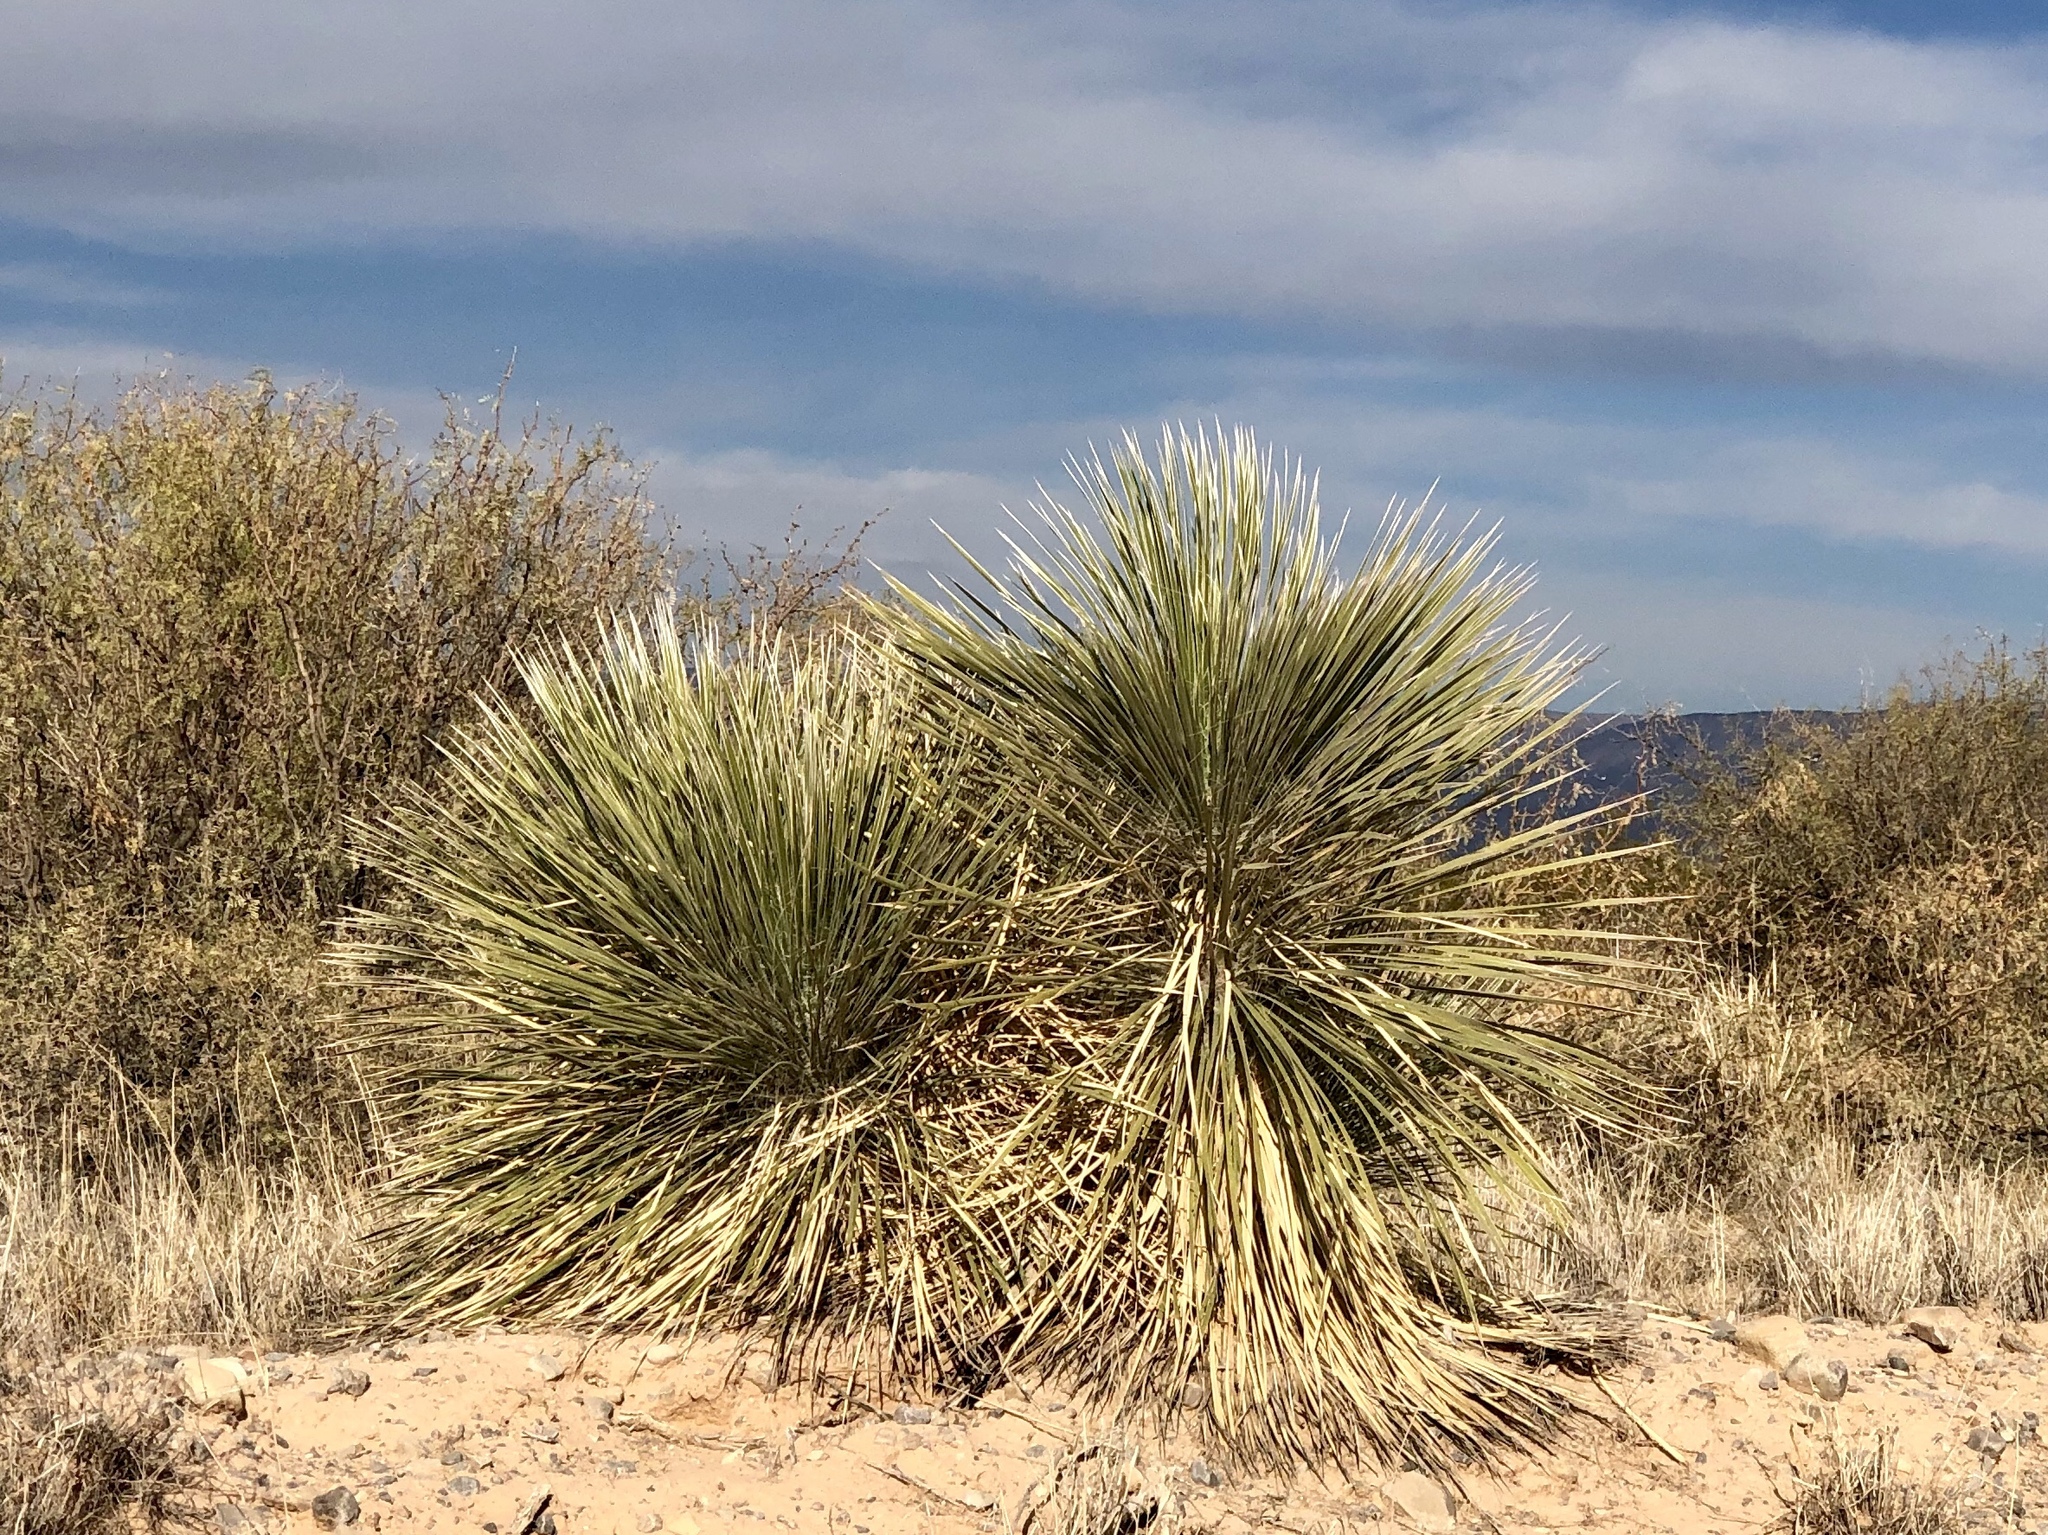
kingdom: Plantae
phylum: Tracheophyta
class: Liliopsida
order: Asparagales
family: Asparagaceae
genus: Yucca
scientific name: Yucca elata
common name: Palmella
